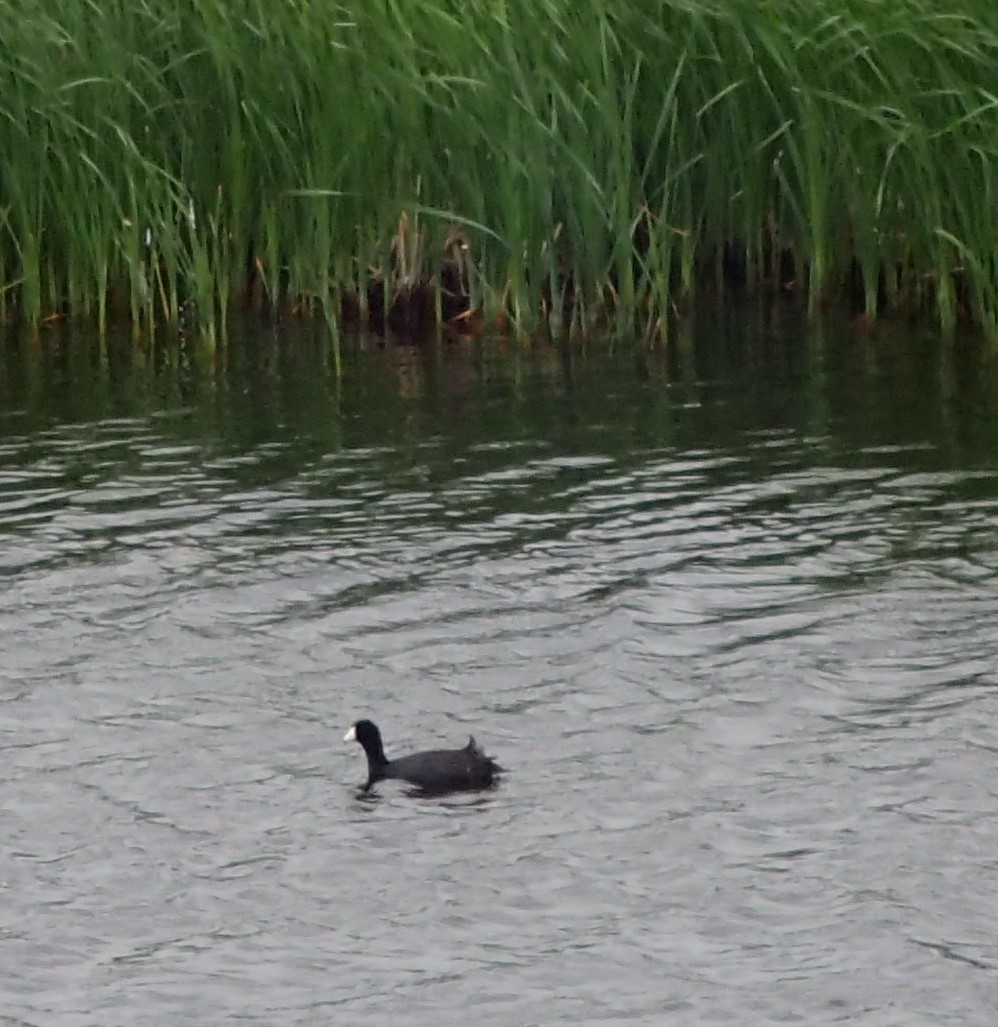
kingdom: Animalia
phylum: Chordata
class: Aves
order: Gruiformes
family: Rallidae
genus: Fulica
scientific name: Fulica americana
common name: American coot
